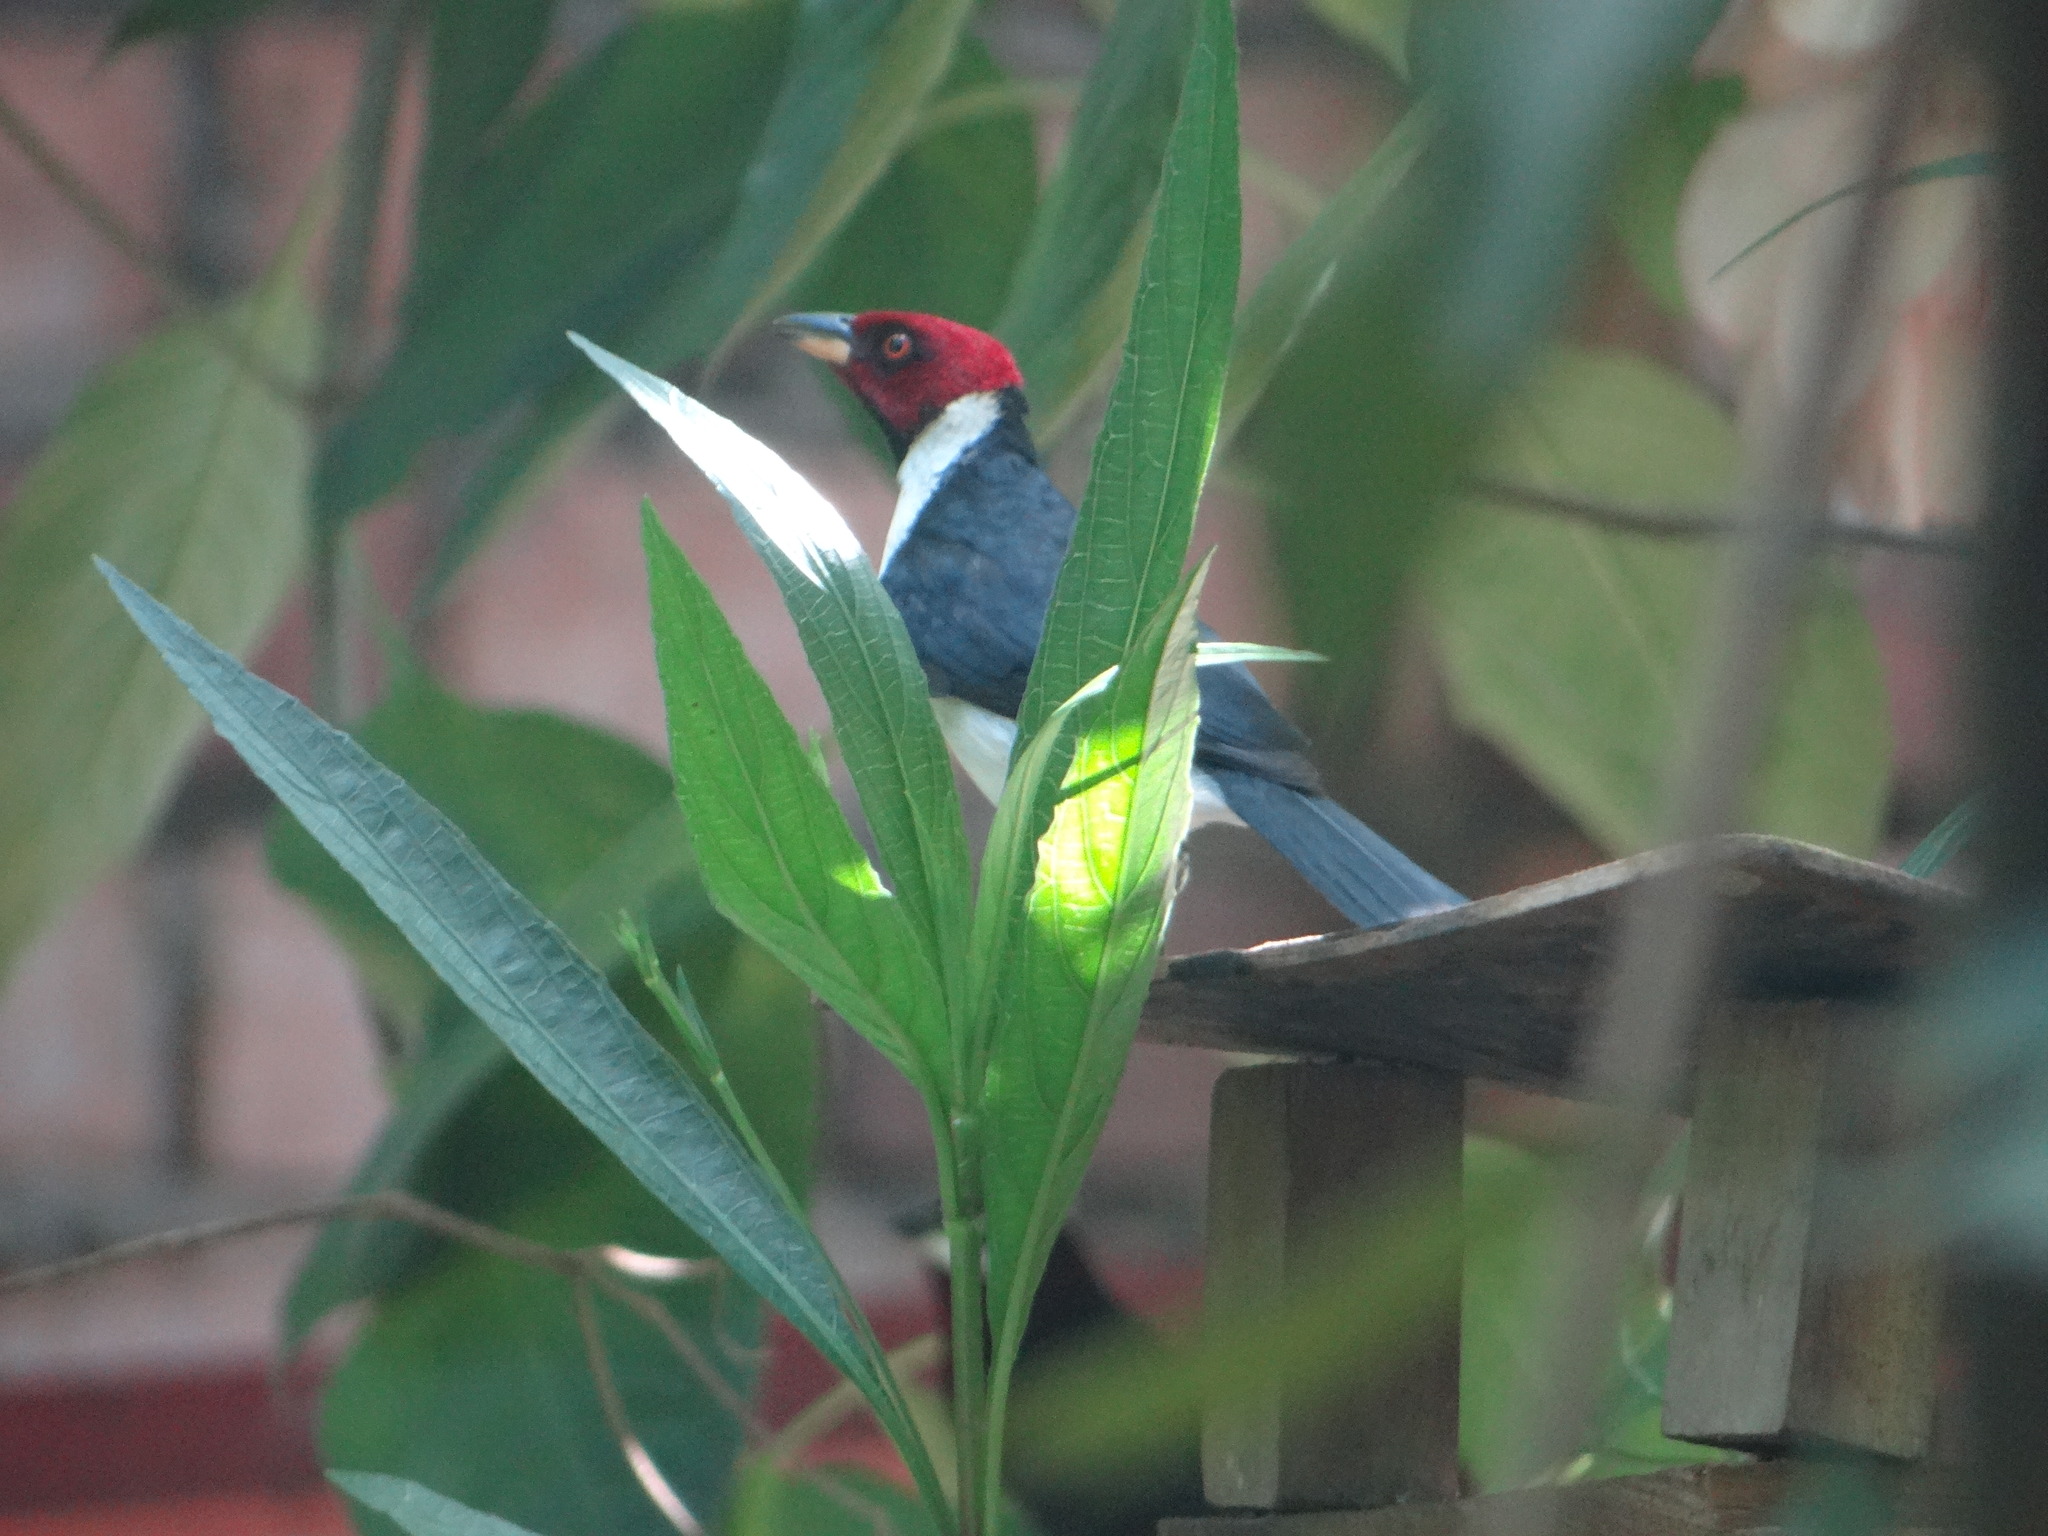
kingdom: Animalia
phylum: Chordata
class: Aves
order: Passeriformes
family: Thraupidae
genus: Paroaria
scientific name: Paroaria gularis
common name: Red-capped cardinal
